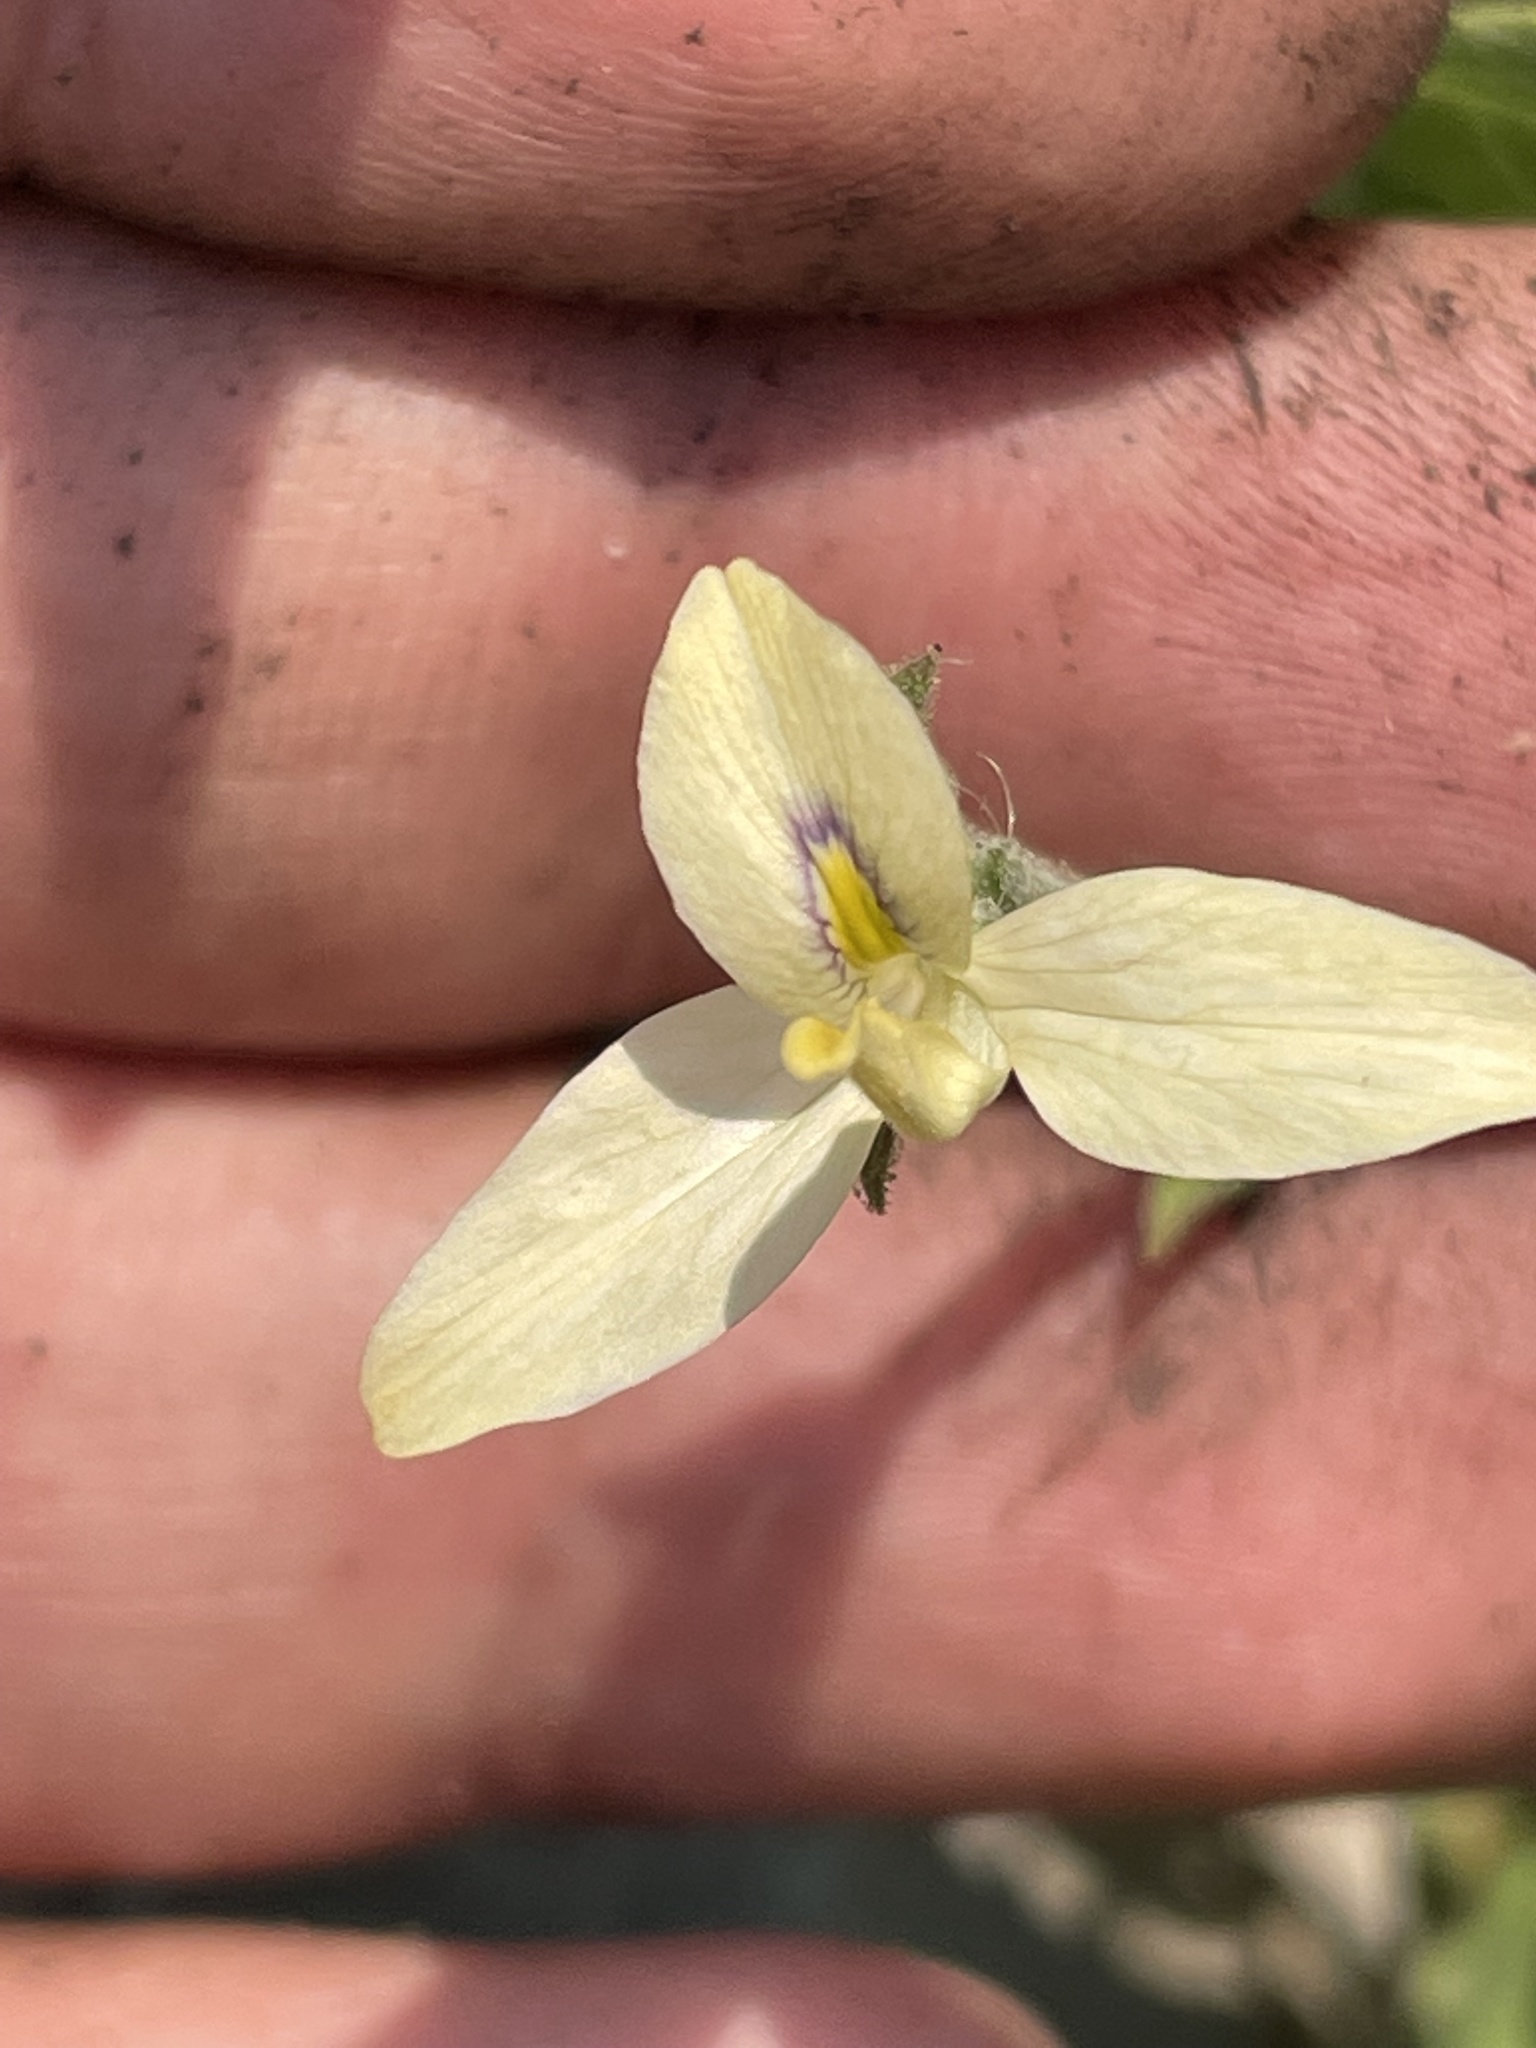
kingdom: Plantae
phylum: Tracheophyta
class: Magnoliopsida
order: Lamiales
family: Acanthaceae
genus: Carlowrightia
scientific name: Carlowrightia neesiana
